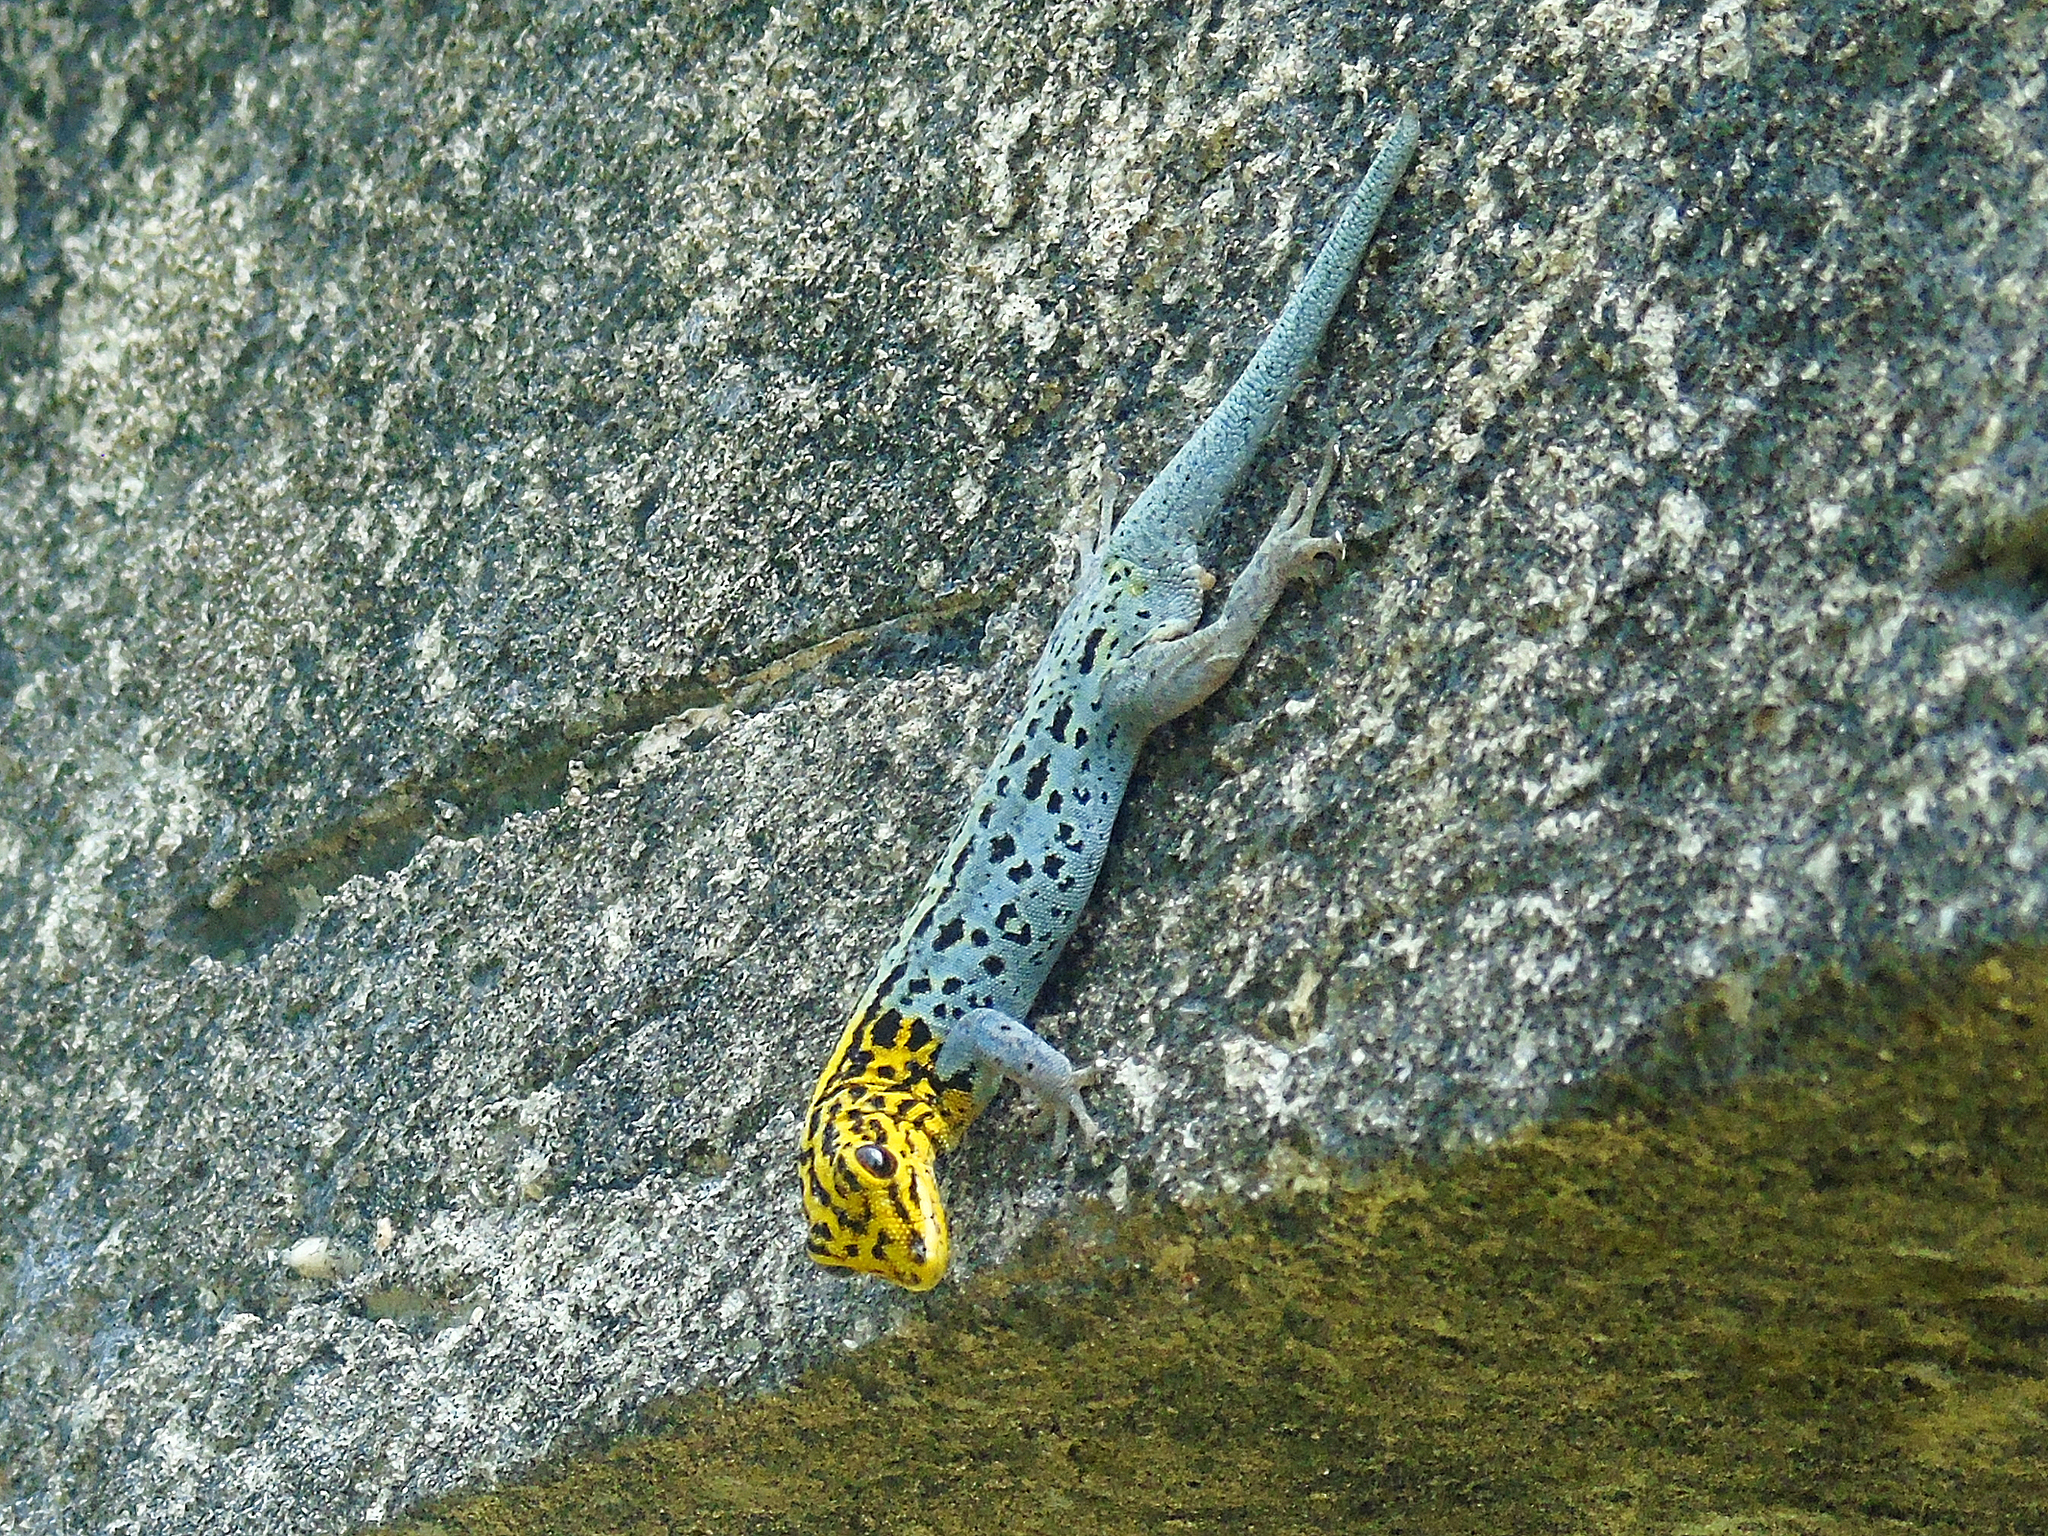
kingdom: Animalia
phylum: Chordata
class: Squamata
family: Gekkonidae
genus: Lygodactylus
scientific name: Lygodactylus picturatus
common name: Painted dwarf gecko
